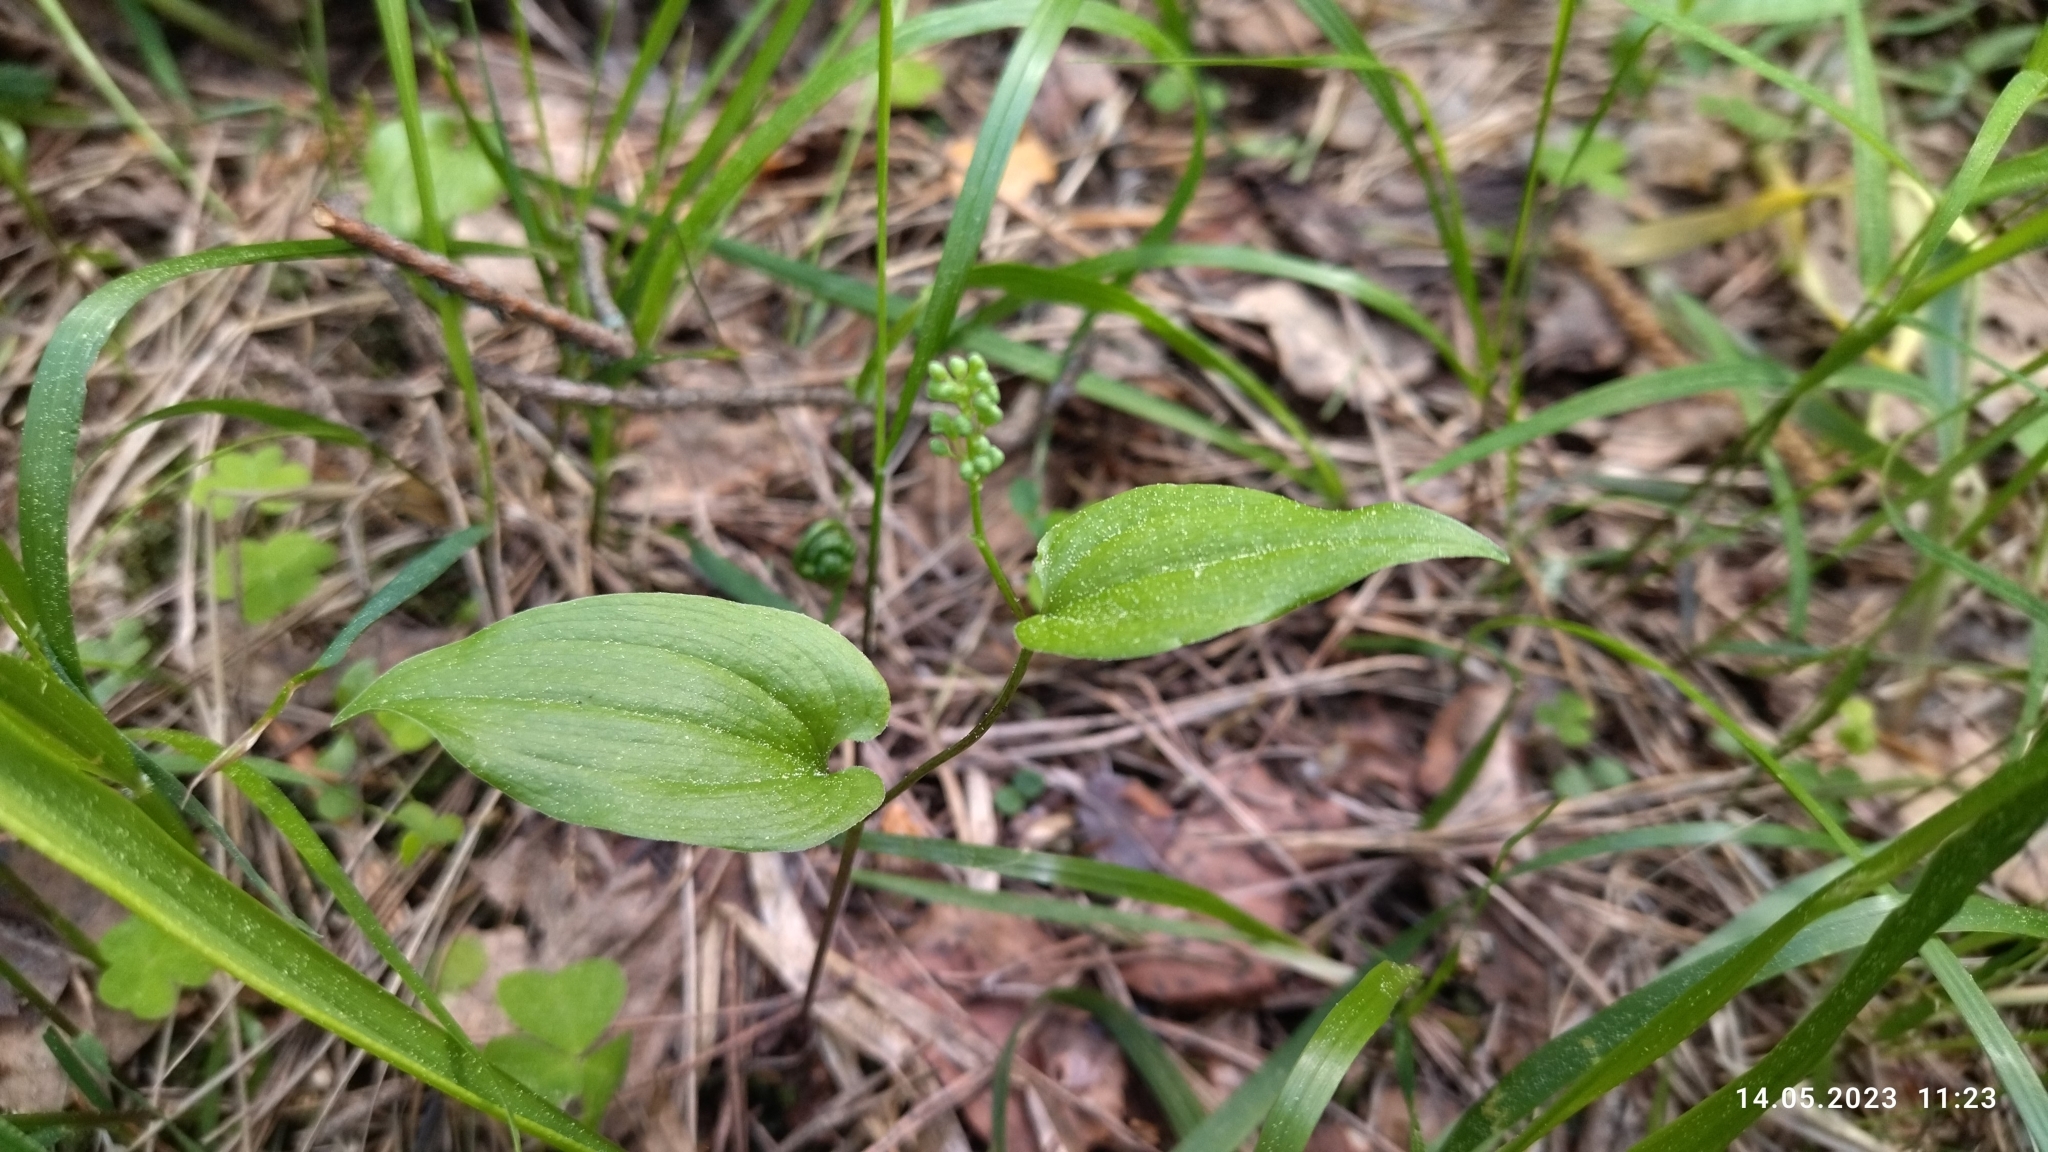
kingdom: Plantae
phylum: Tracheophyta
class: Liliopsida
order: Asparagales
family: Asparagaceae
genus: Maianthemum
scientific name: Maianthemum bifolium
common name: May lily
